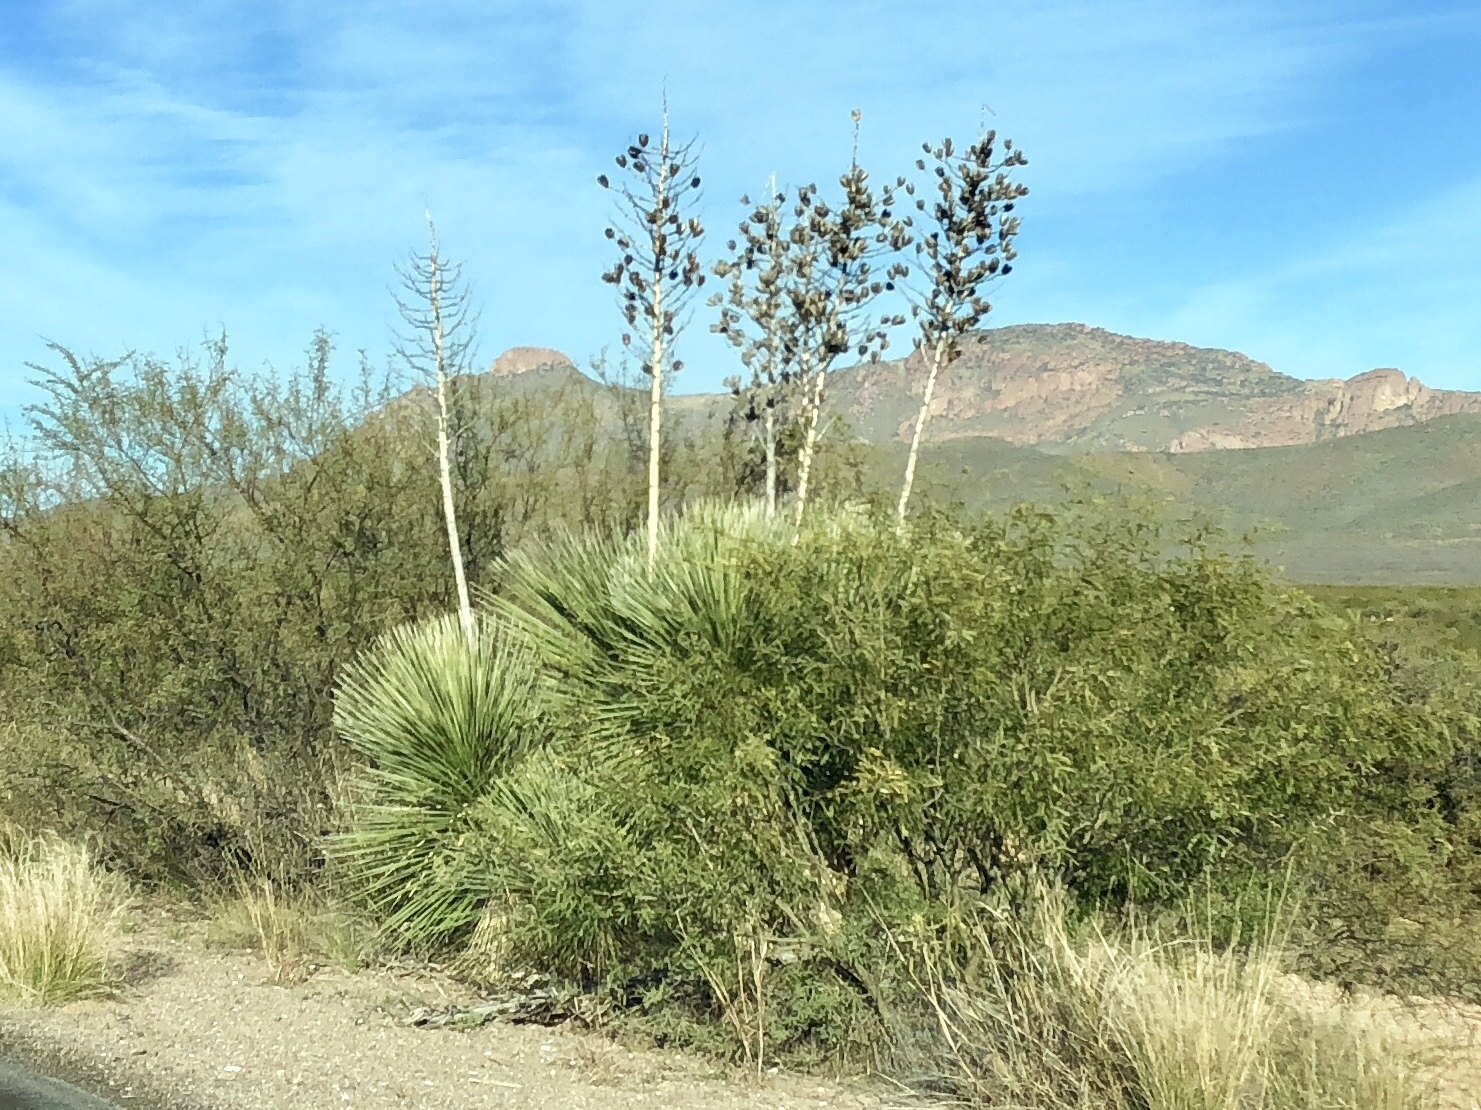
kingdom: Plantae
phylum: Tracheophyta
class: Liliopsida
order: Asparagales
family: Asparagaceae
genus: Yucca
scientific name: Yucca elata
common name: Palmella
